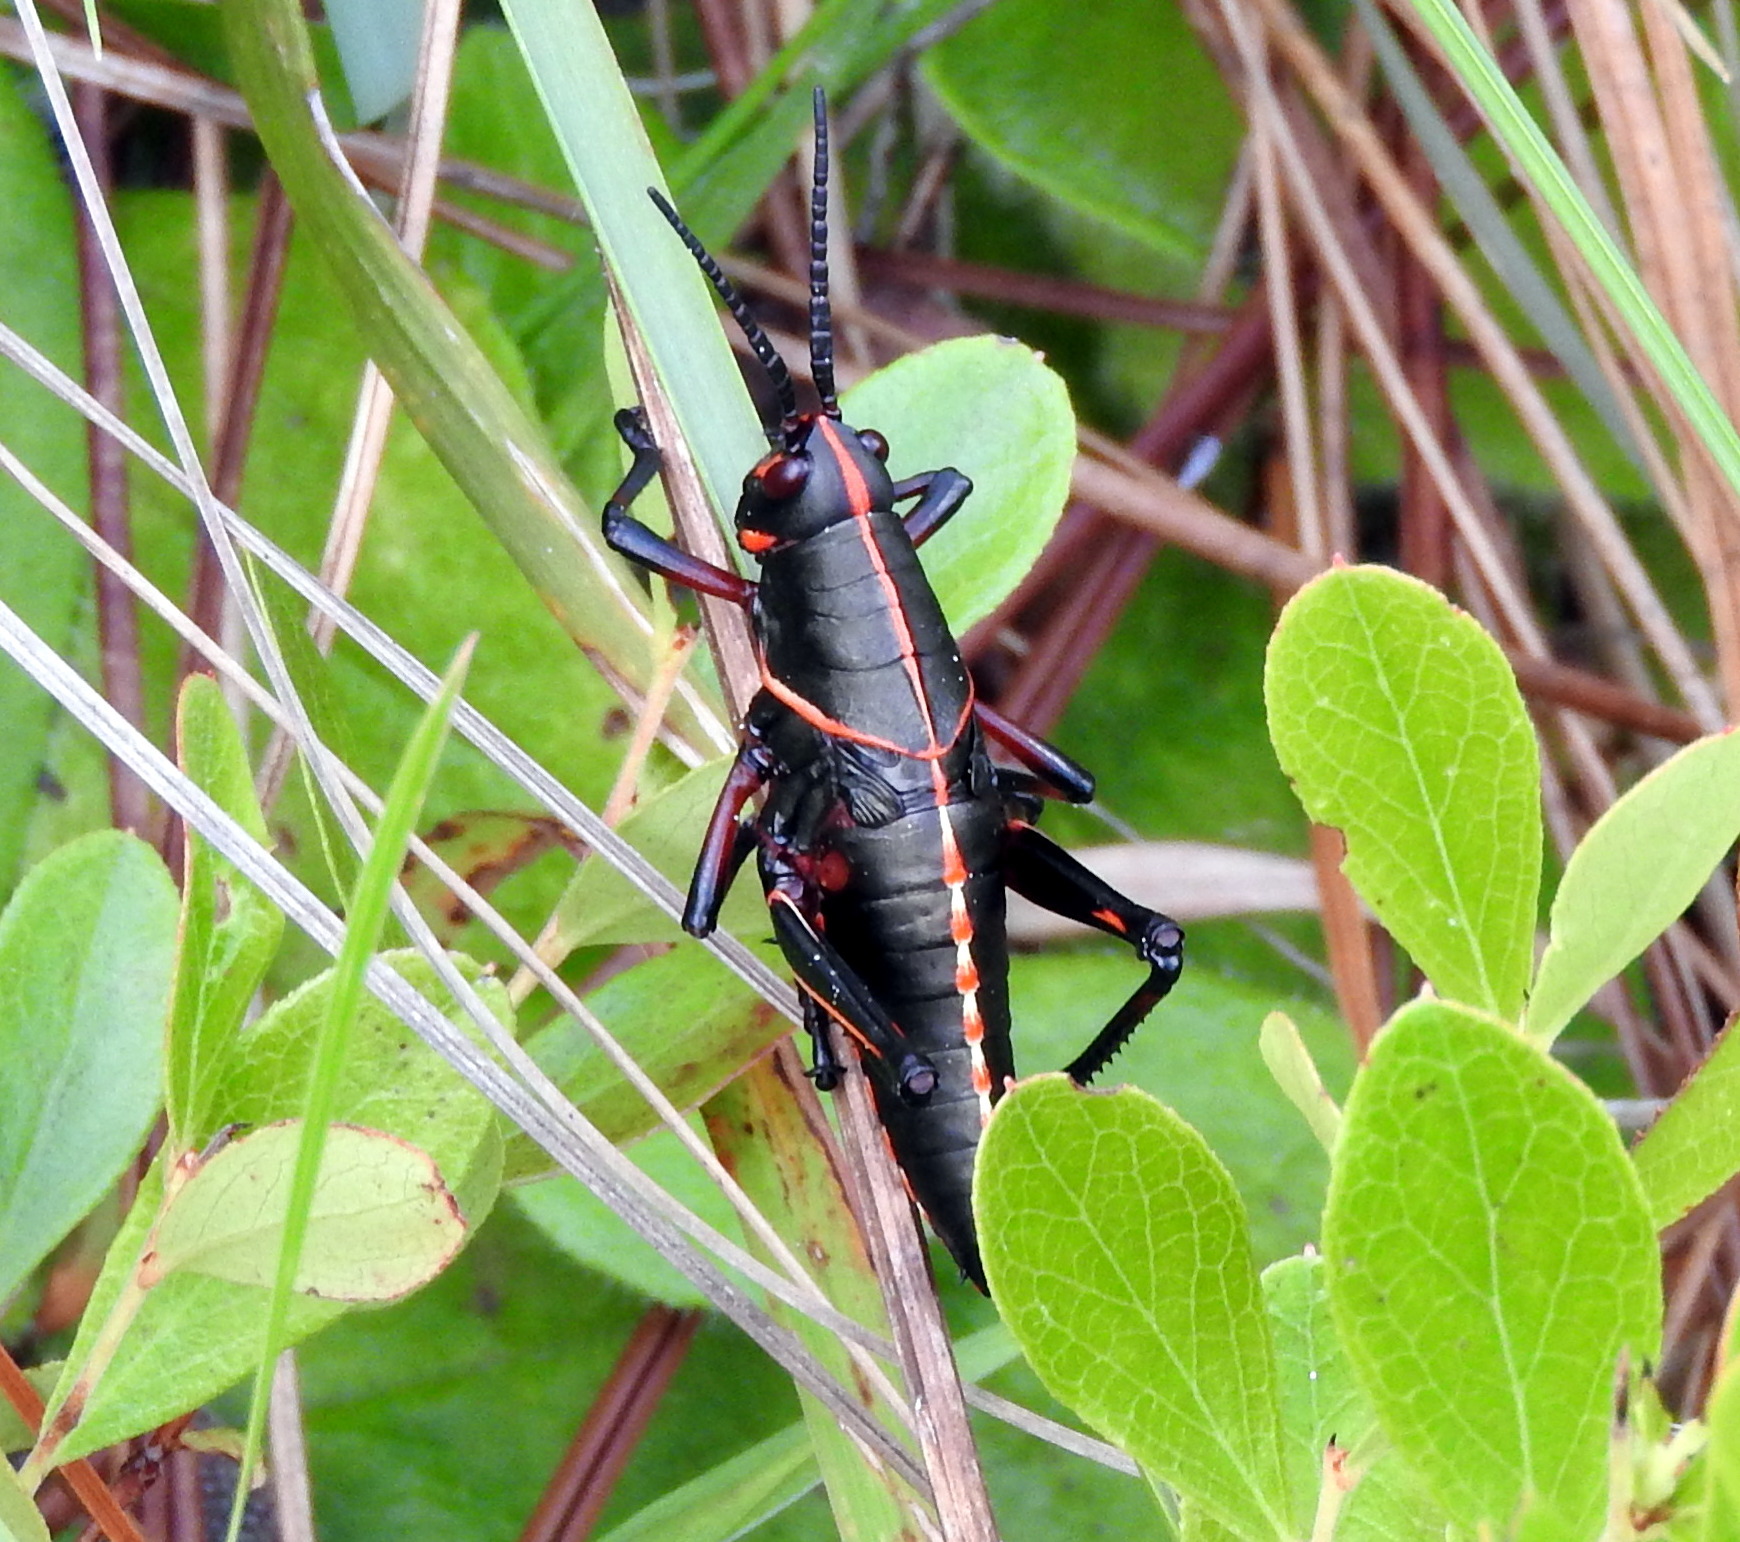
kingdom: Animalia
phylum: Arthropoda
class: Insecta
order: Orthoptera
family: Romaleidae
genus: Romalea
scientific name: Romalea microptera
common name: Eastern lubber grasshopper
